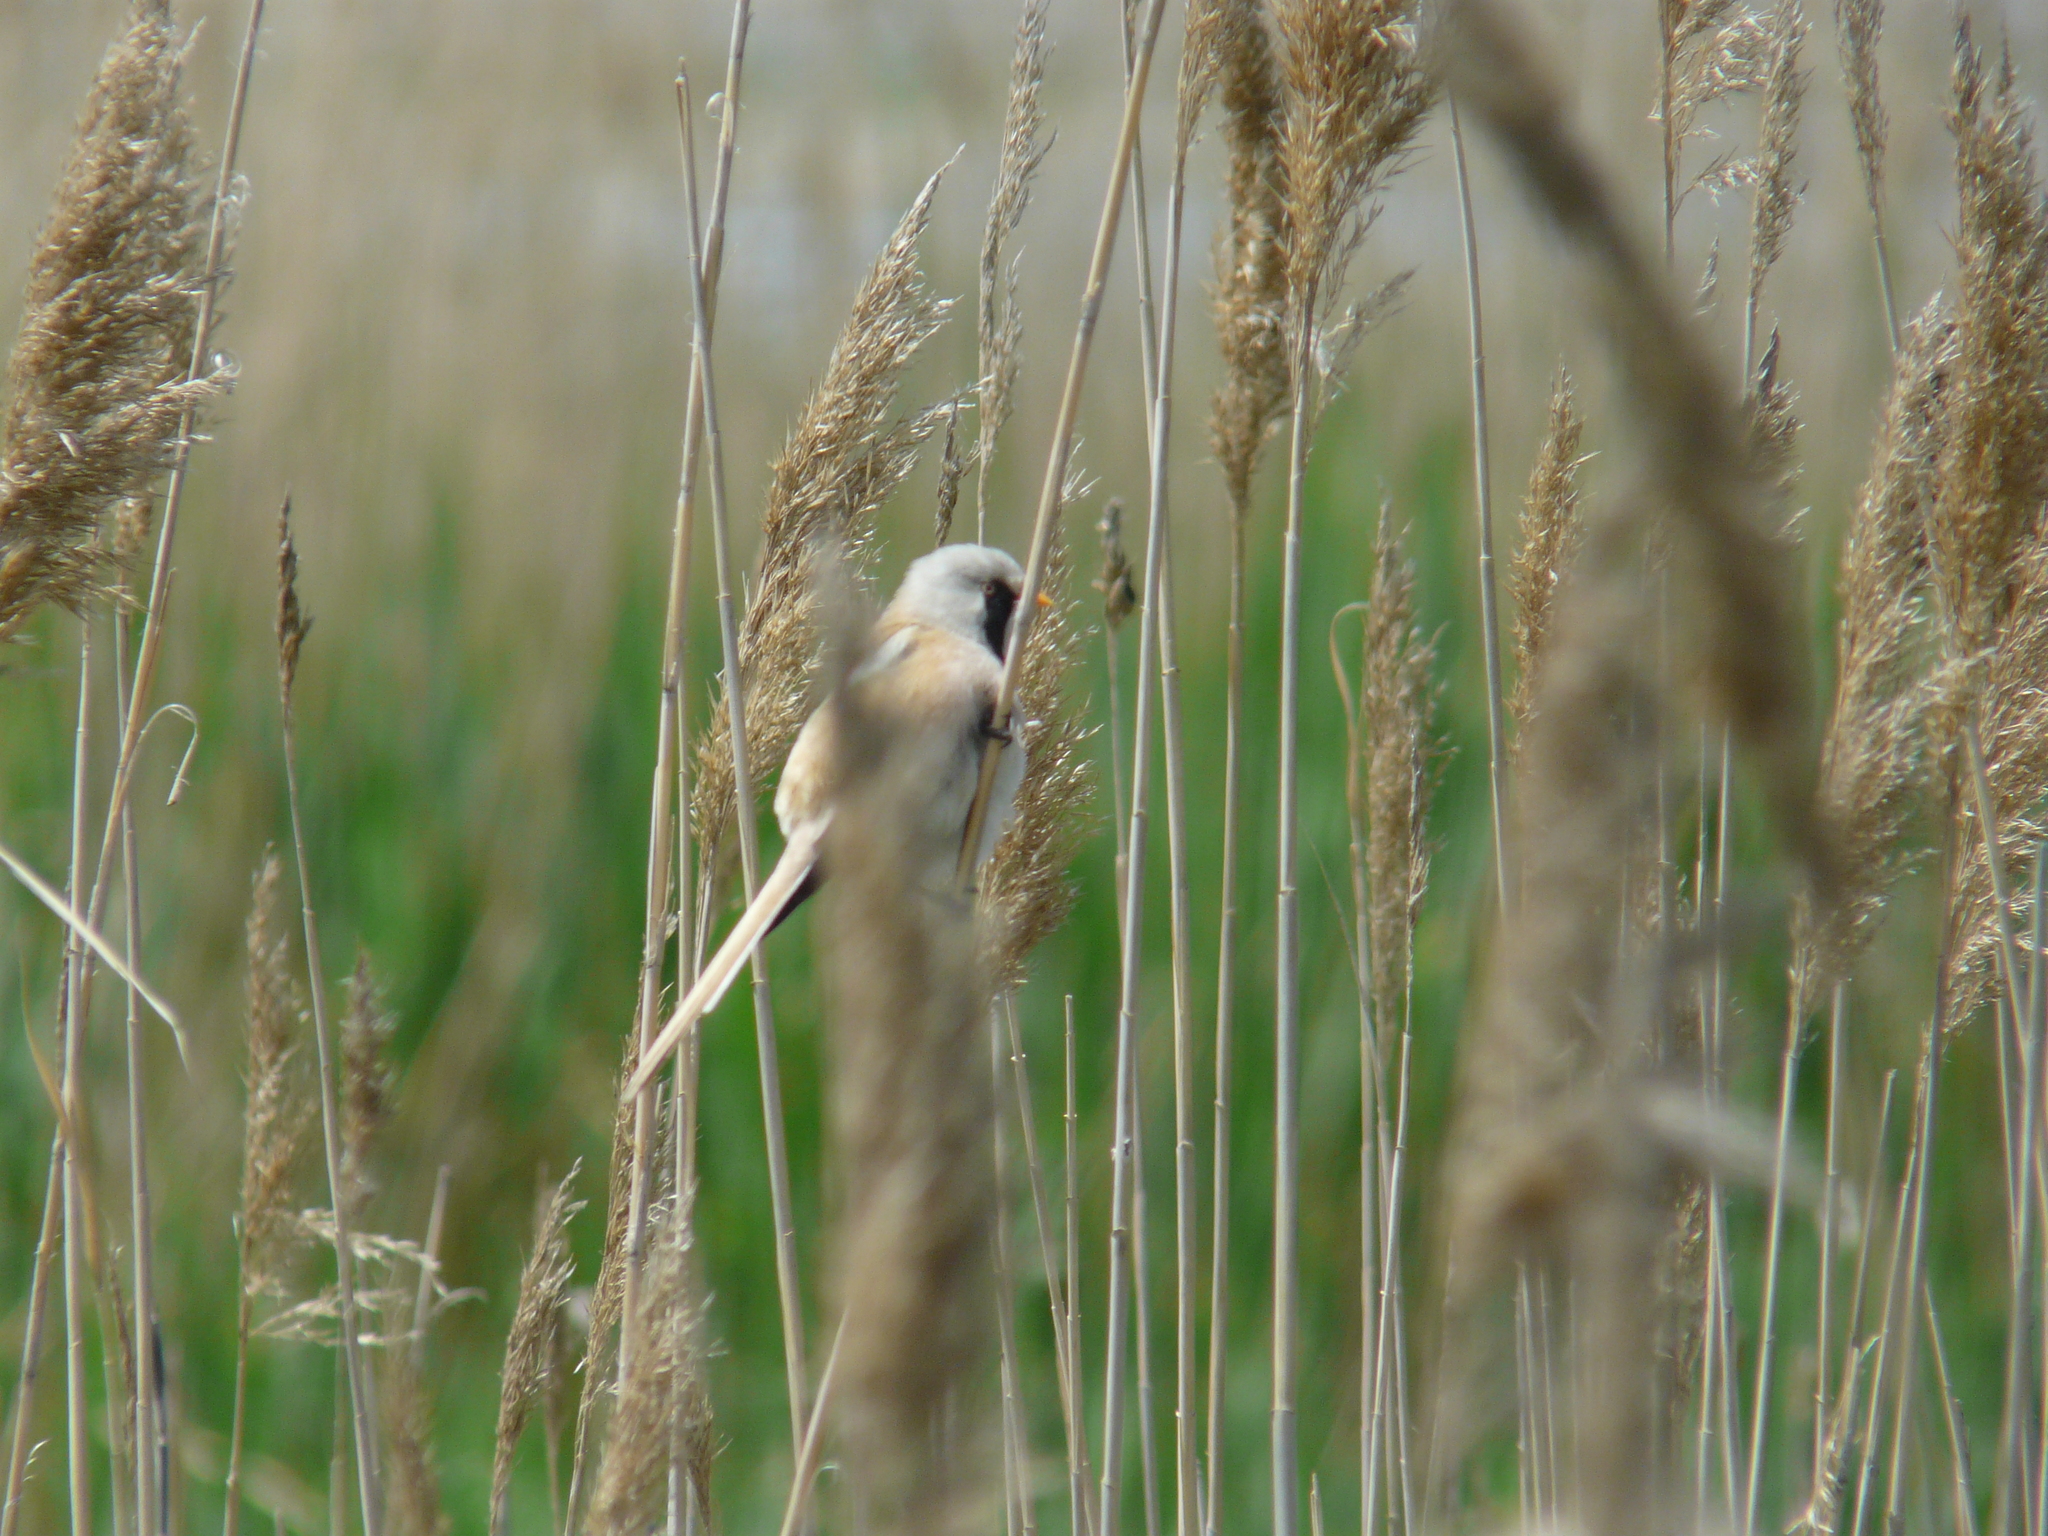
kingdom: Animalia
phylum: Chordata
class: Aves
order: Passeriformes
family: Panuridae
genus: Panurus
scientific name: Panurus biarmicus
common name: Bearded reedling
